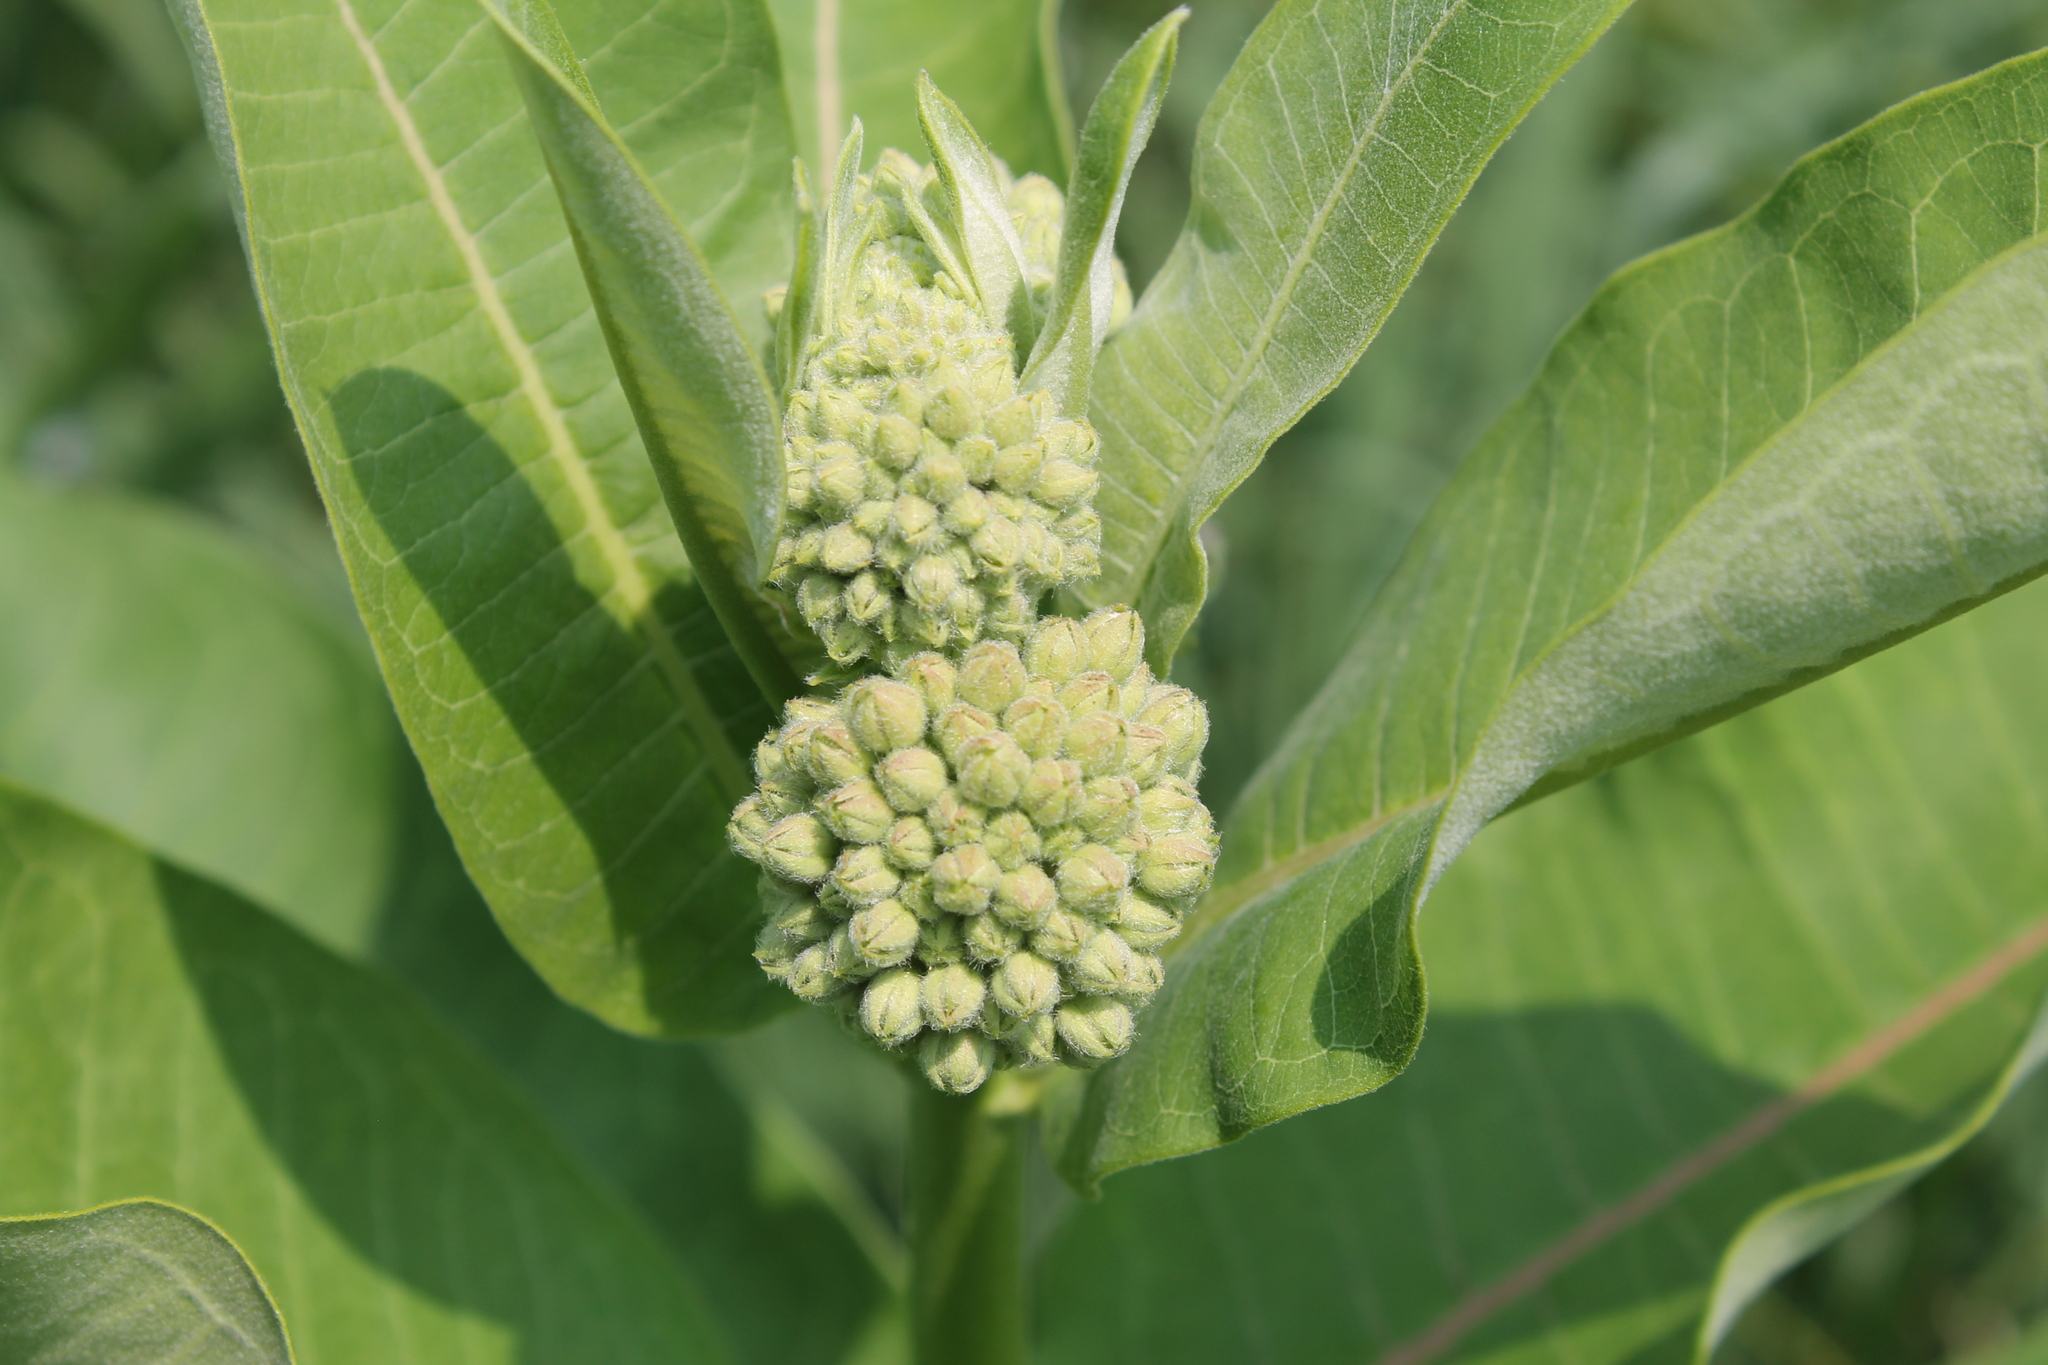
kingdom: Plantae
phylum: Tracheophyta
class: Magnoliopsida
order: Gentianales
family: Apocynaceae
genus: Asclepias
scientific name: Asclepias syriaca
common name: Common milkweed
